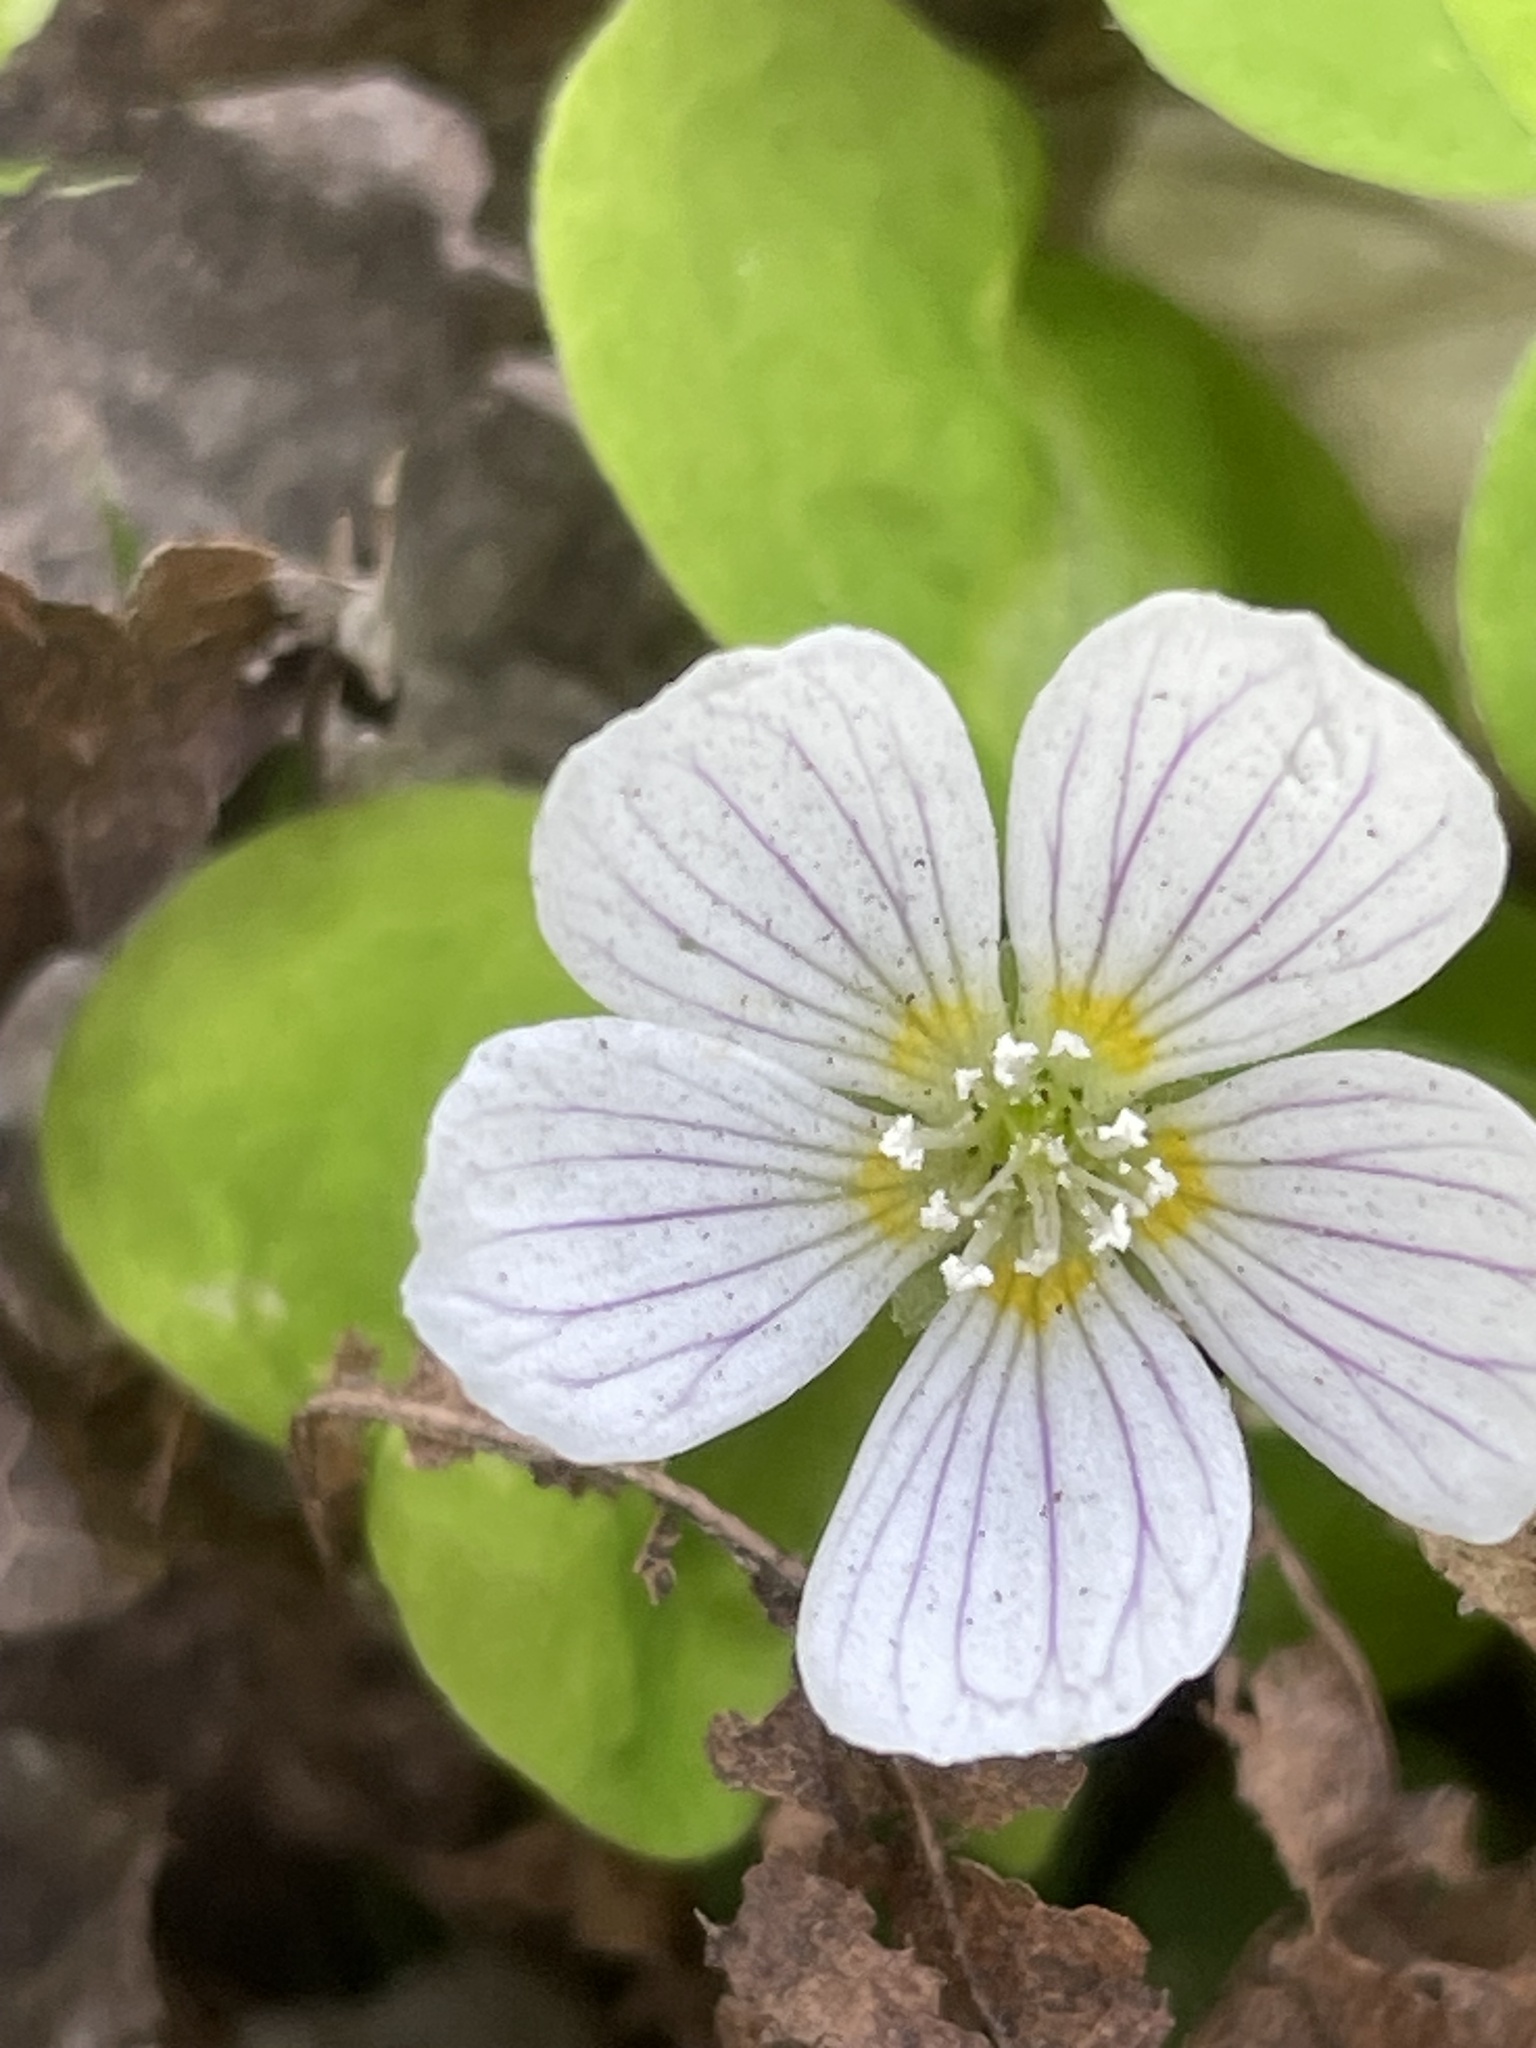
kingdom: Plantae
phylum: Tracheophyta
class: Magnoliopsida
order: Oxalidales
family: Oxalidaceae
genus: Oxalis
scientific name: Oxalis acetosella
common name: Wood-sorrel
